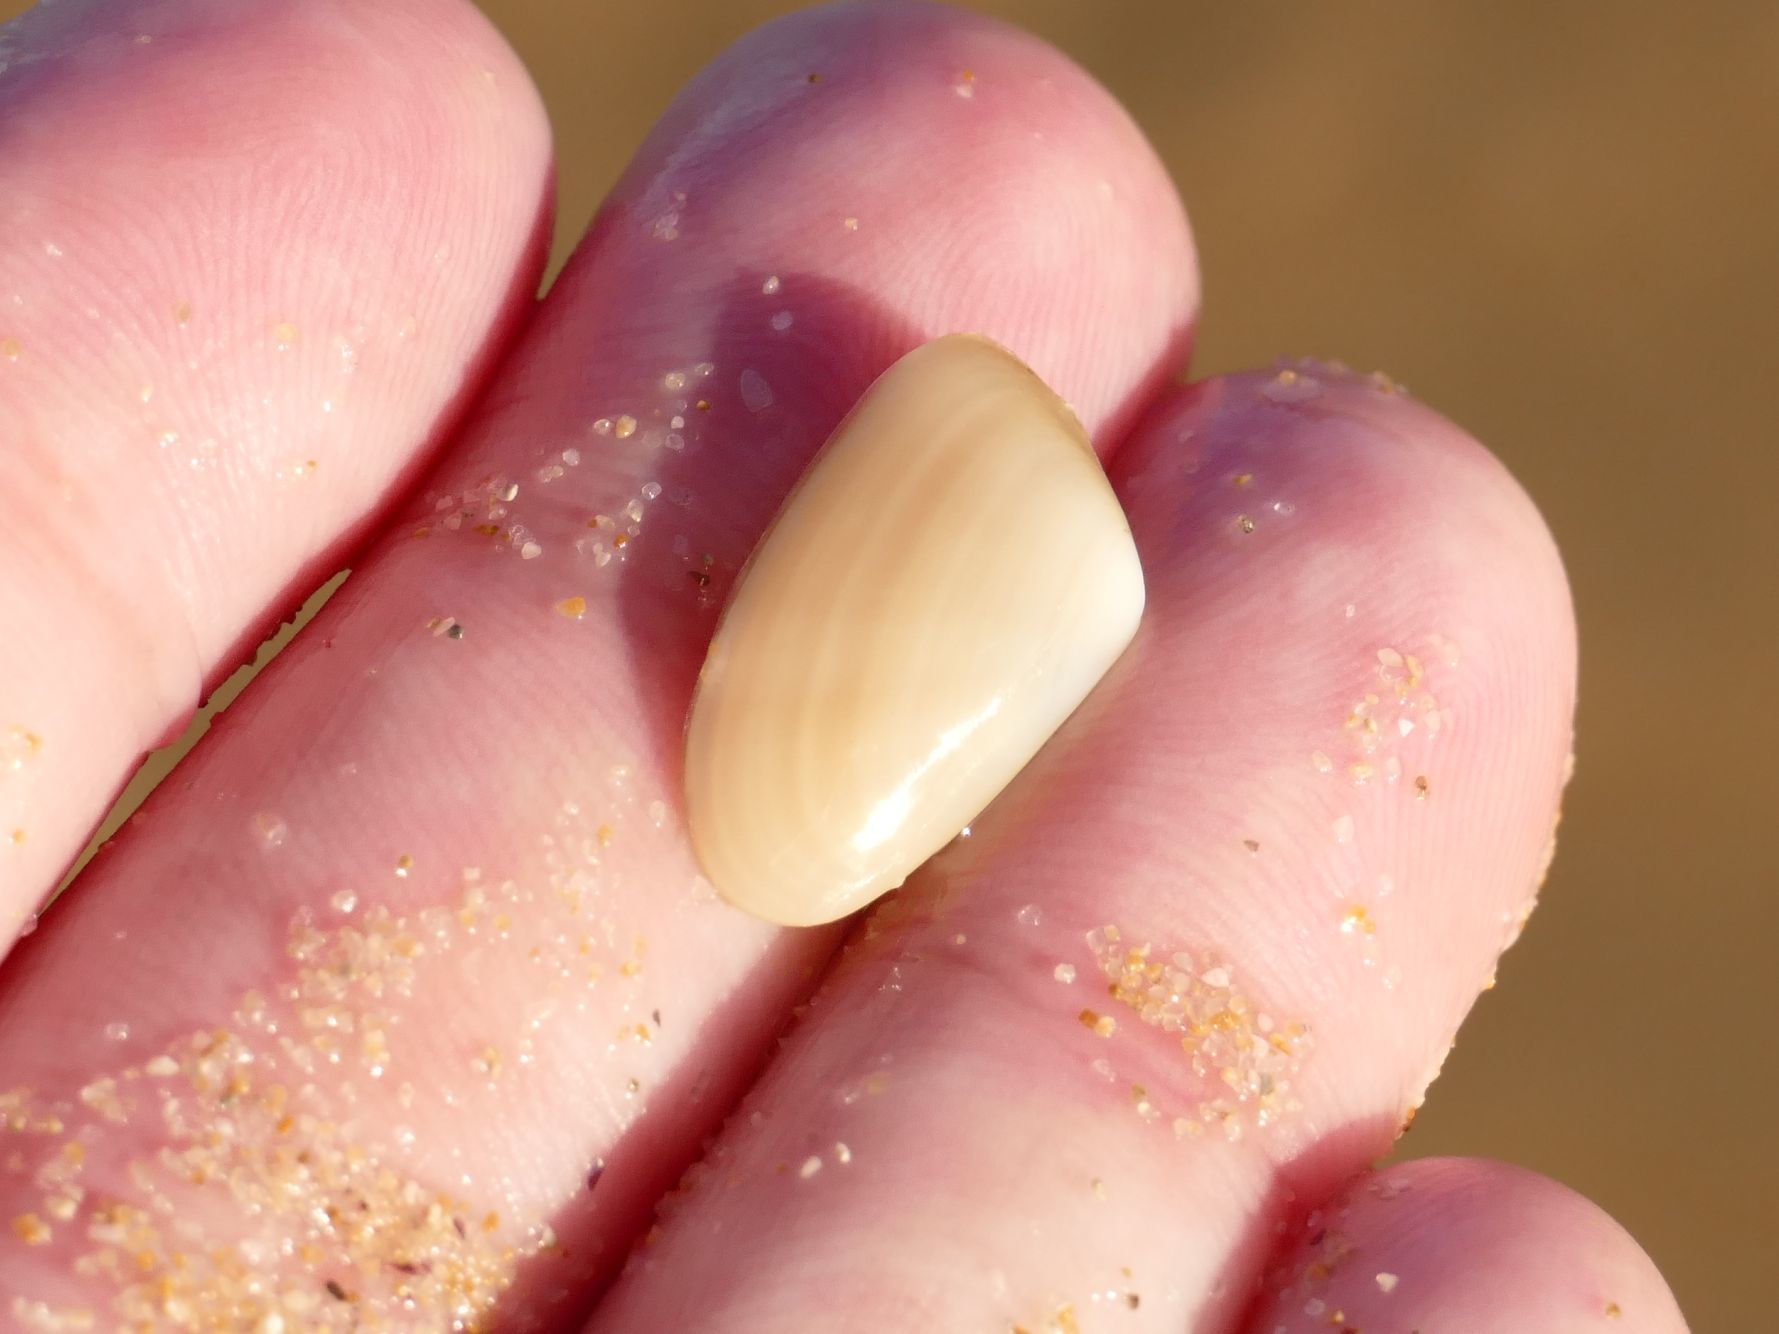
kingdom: Animalia
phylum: Mollusca
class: Bivalvia
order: Venerida
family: Mesodesmatidae
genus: Paphies
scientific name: Paphies angusta
